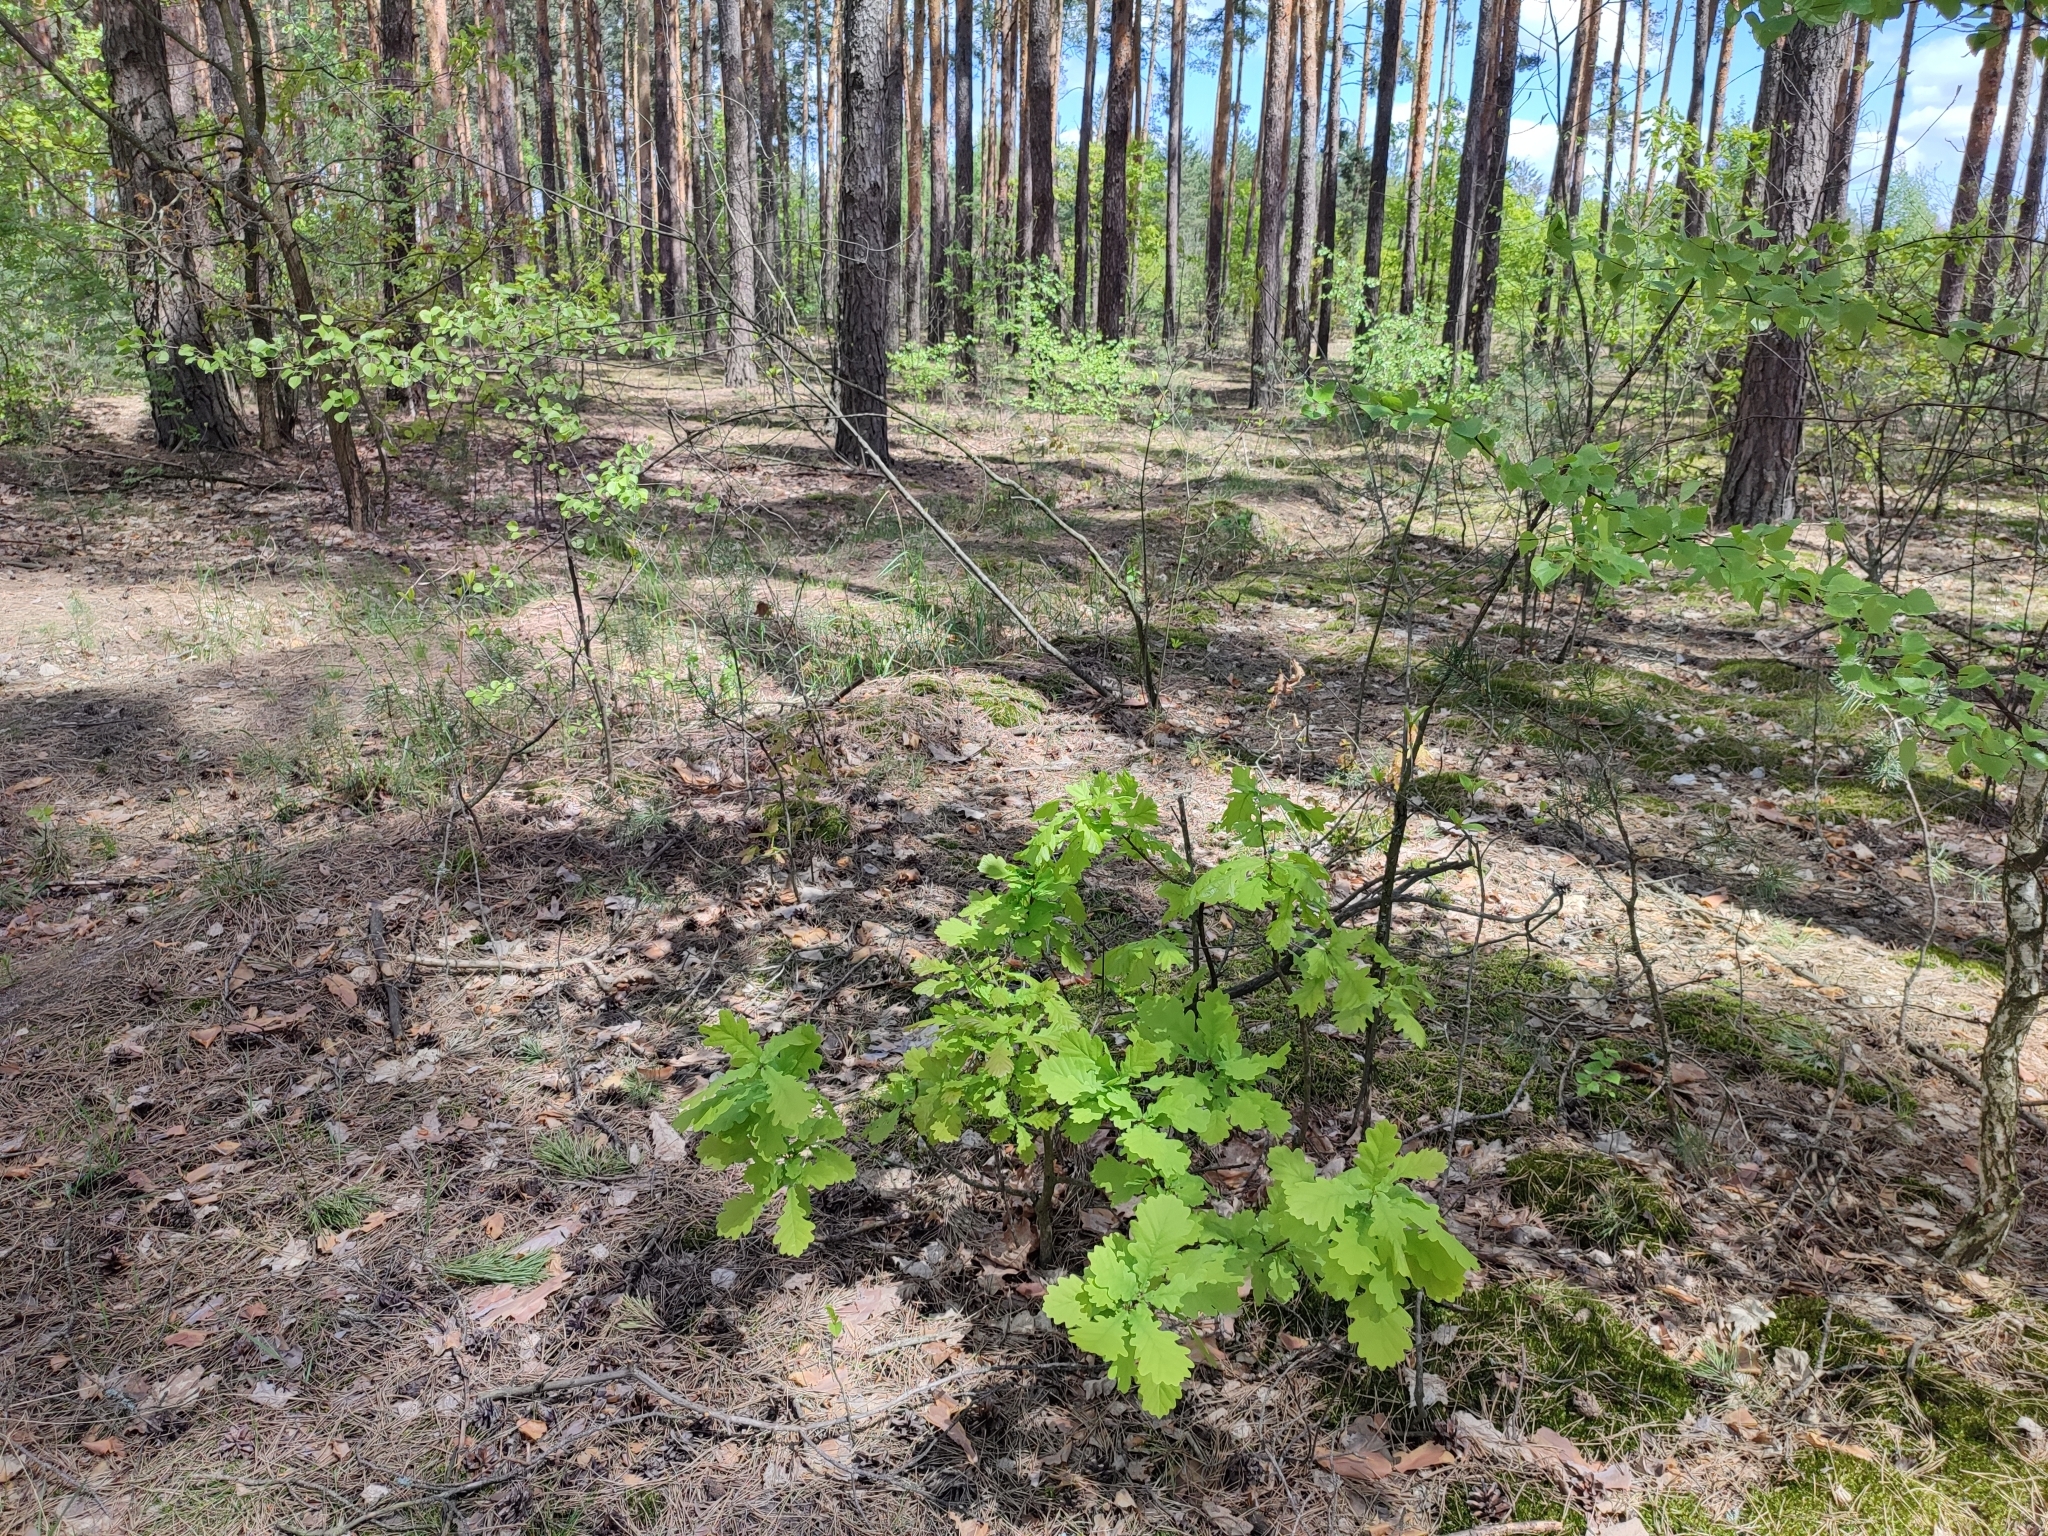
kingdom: Plantae
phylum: Tracheophyta
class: Magnoliopsida
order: Fagales
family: Fagaceae
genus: Quercus
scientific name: Quercus robur
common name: Pedunculate oak
